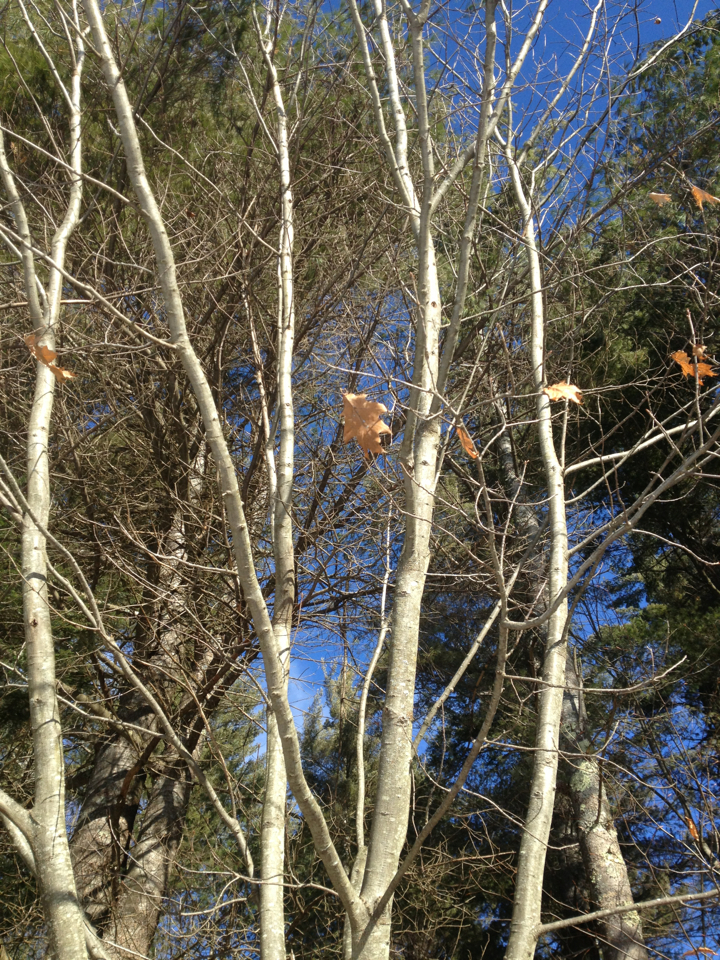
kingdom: Plantae
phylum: Tracheophyta
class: Magnoliopsida
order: Fagales
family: Fagaceae
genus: Quercus
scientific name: Quercus rubra
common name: Red oak
